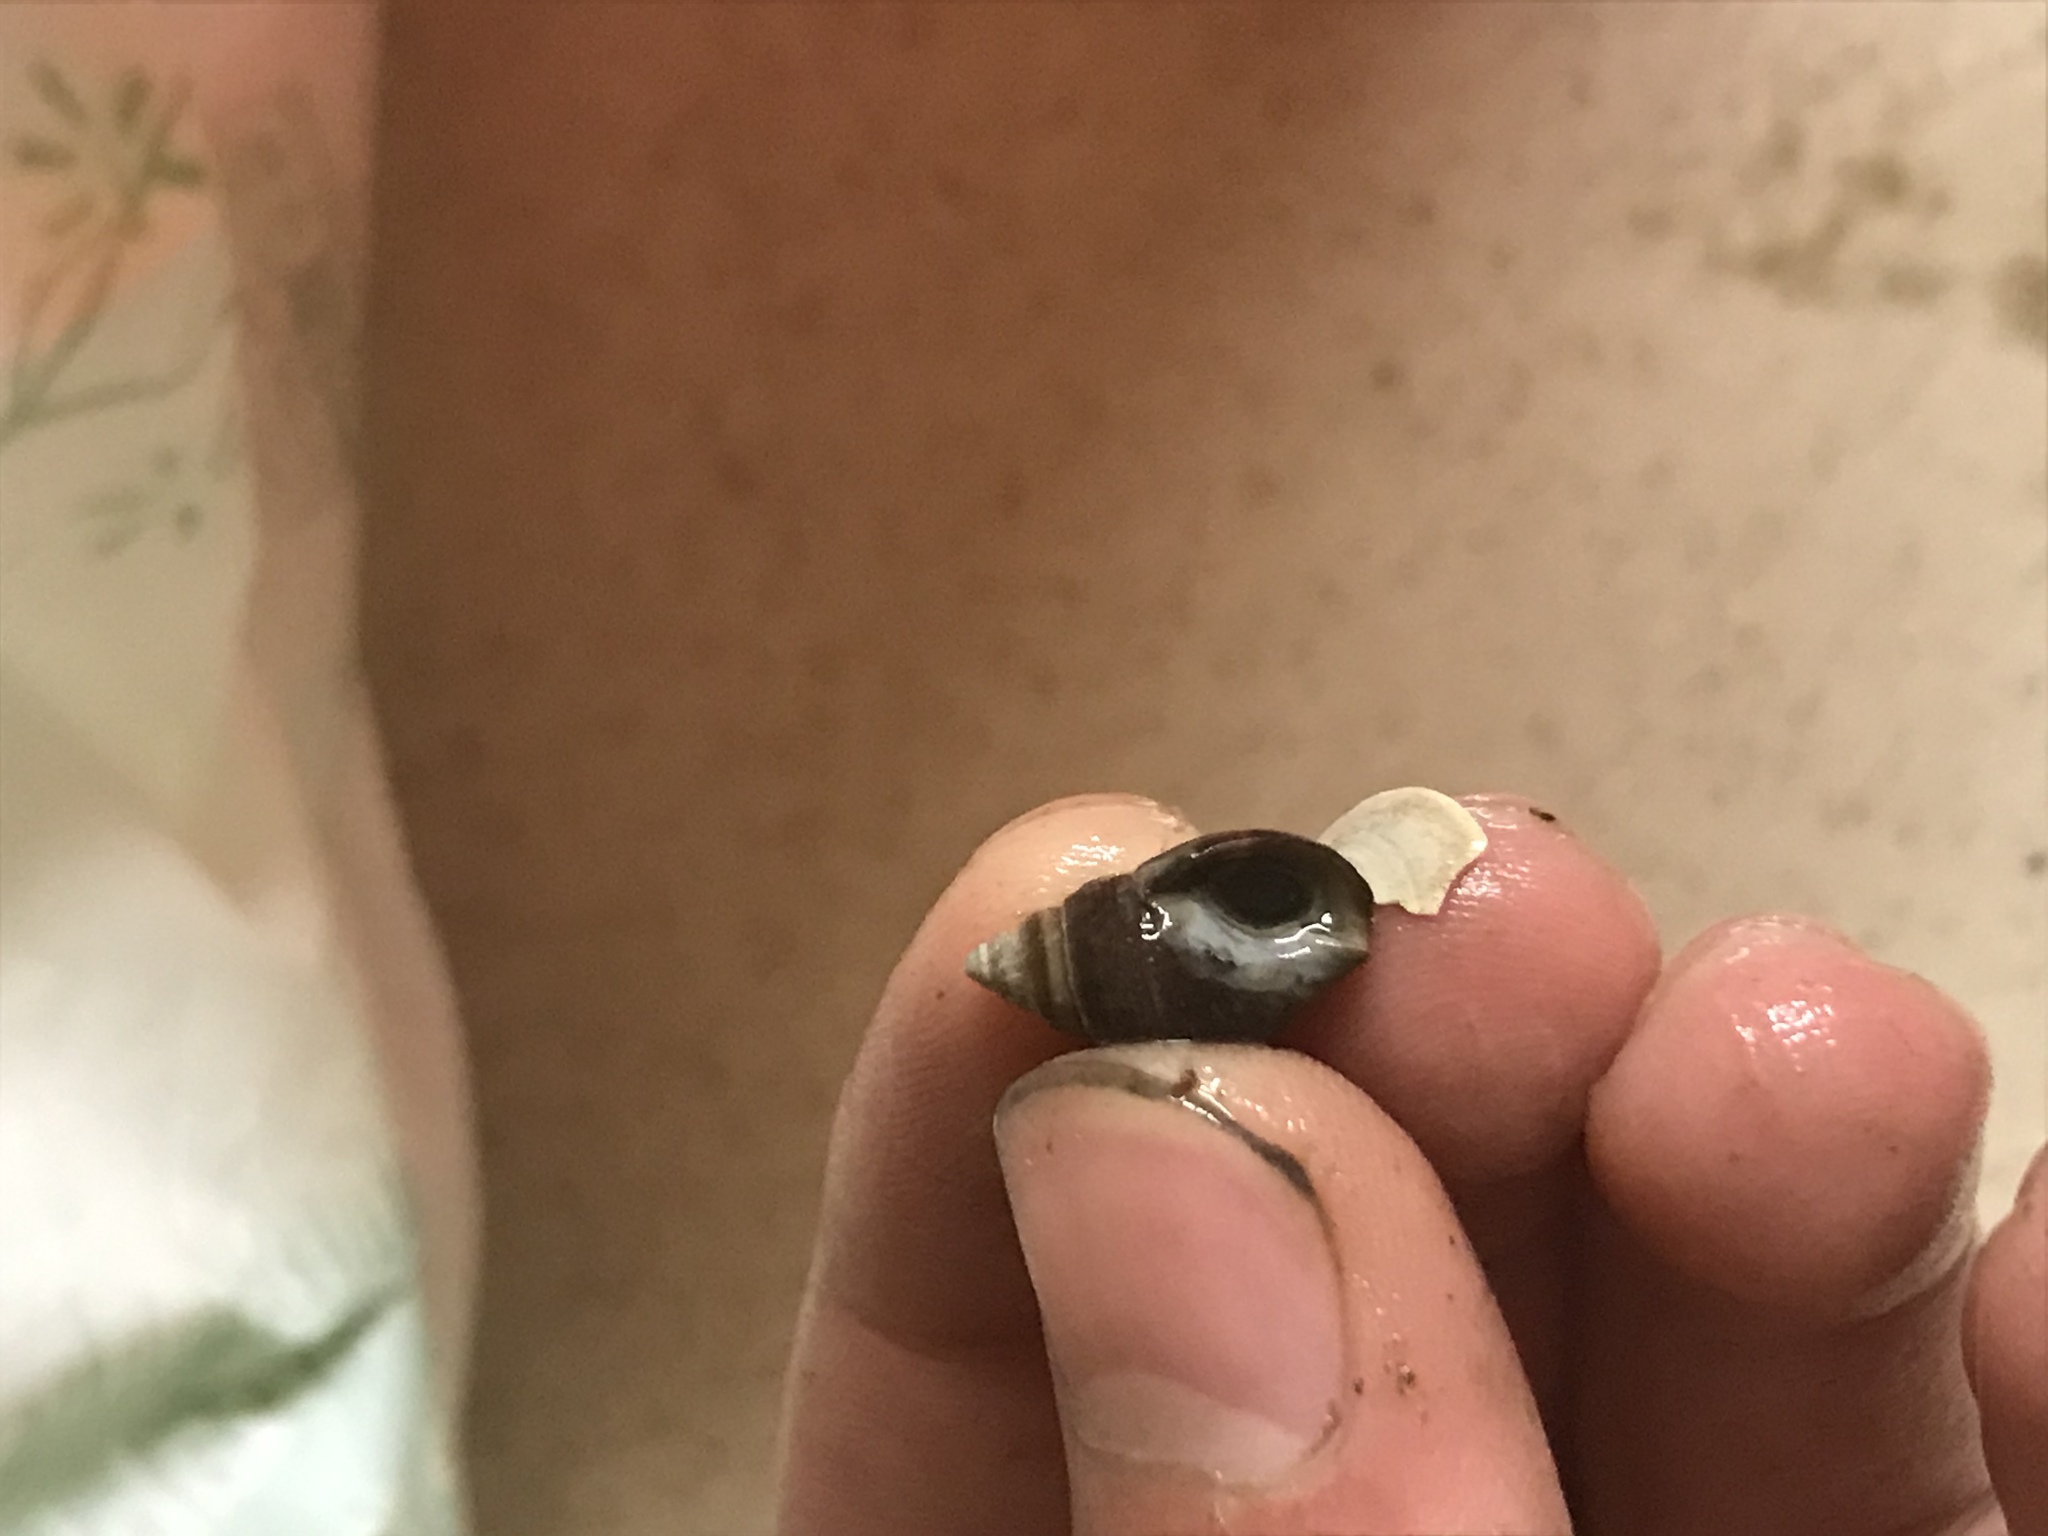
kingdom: Animalia
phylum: Mollusca
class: Gastropoda
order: Neogastropoda
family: Nassariidae
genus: Ilyanassa
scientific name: Ilyanassa obsoleta
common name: Eastern mudsnail
